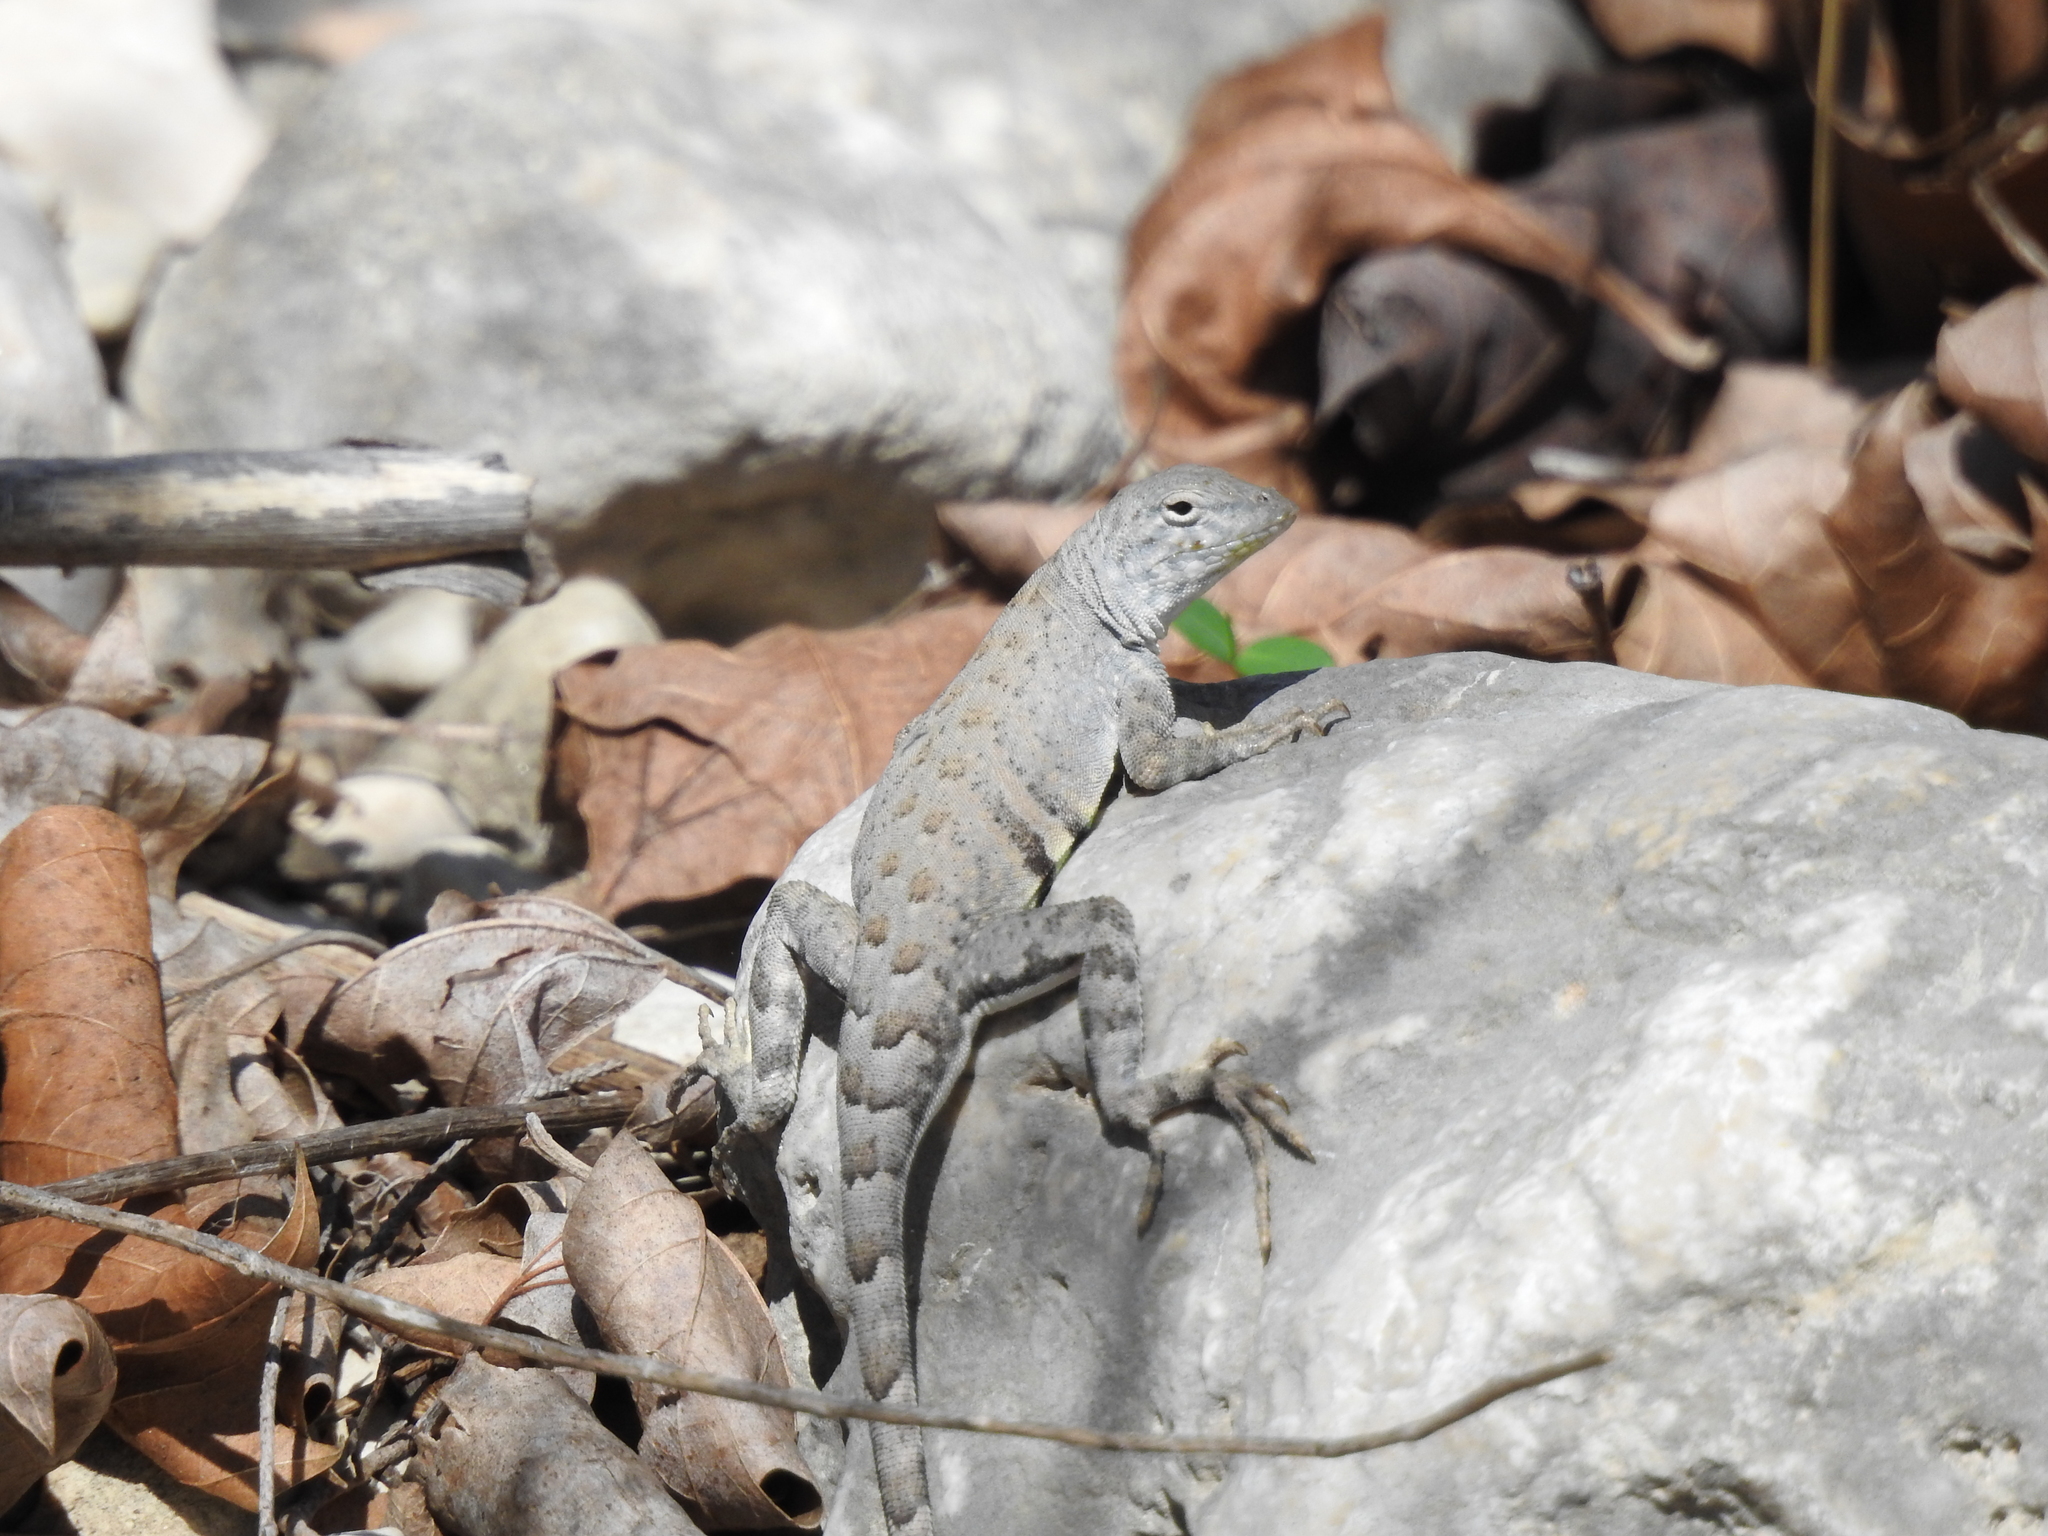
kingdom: Animalia
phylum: Chordata
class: Squamata
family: Phrynosomatidae
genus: Cophosaurus
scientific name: Cophosaurus texanus
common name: Greater earless lizard
